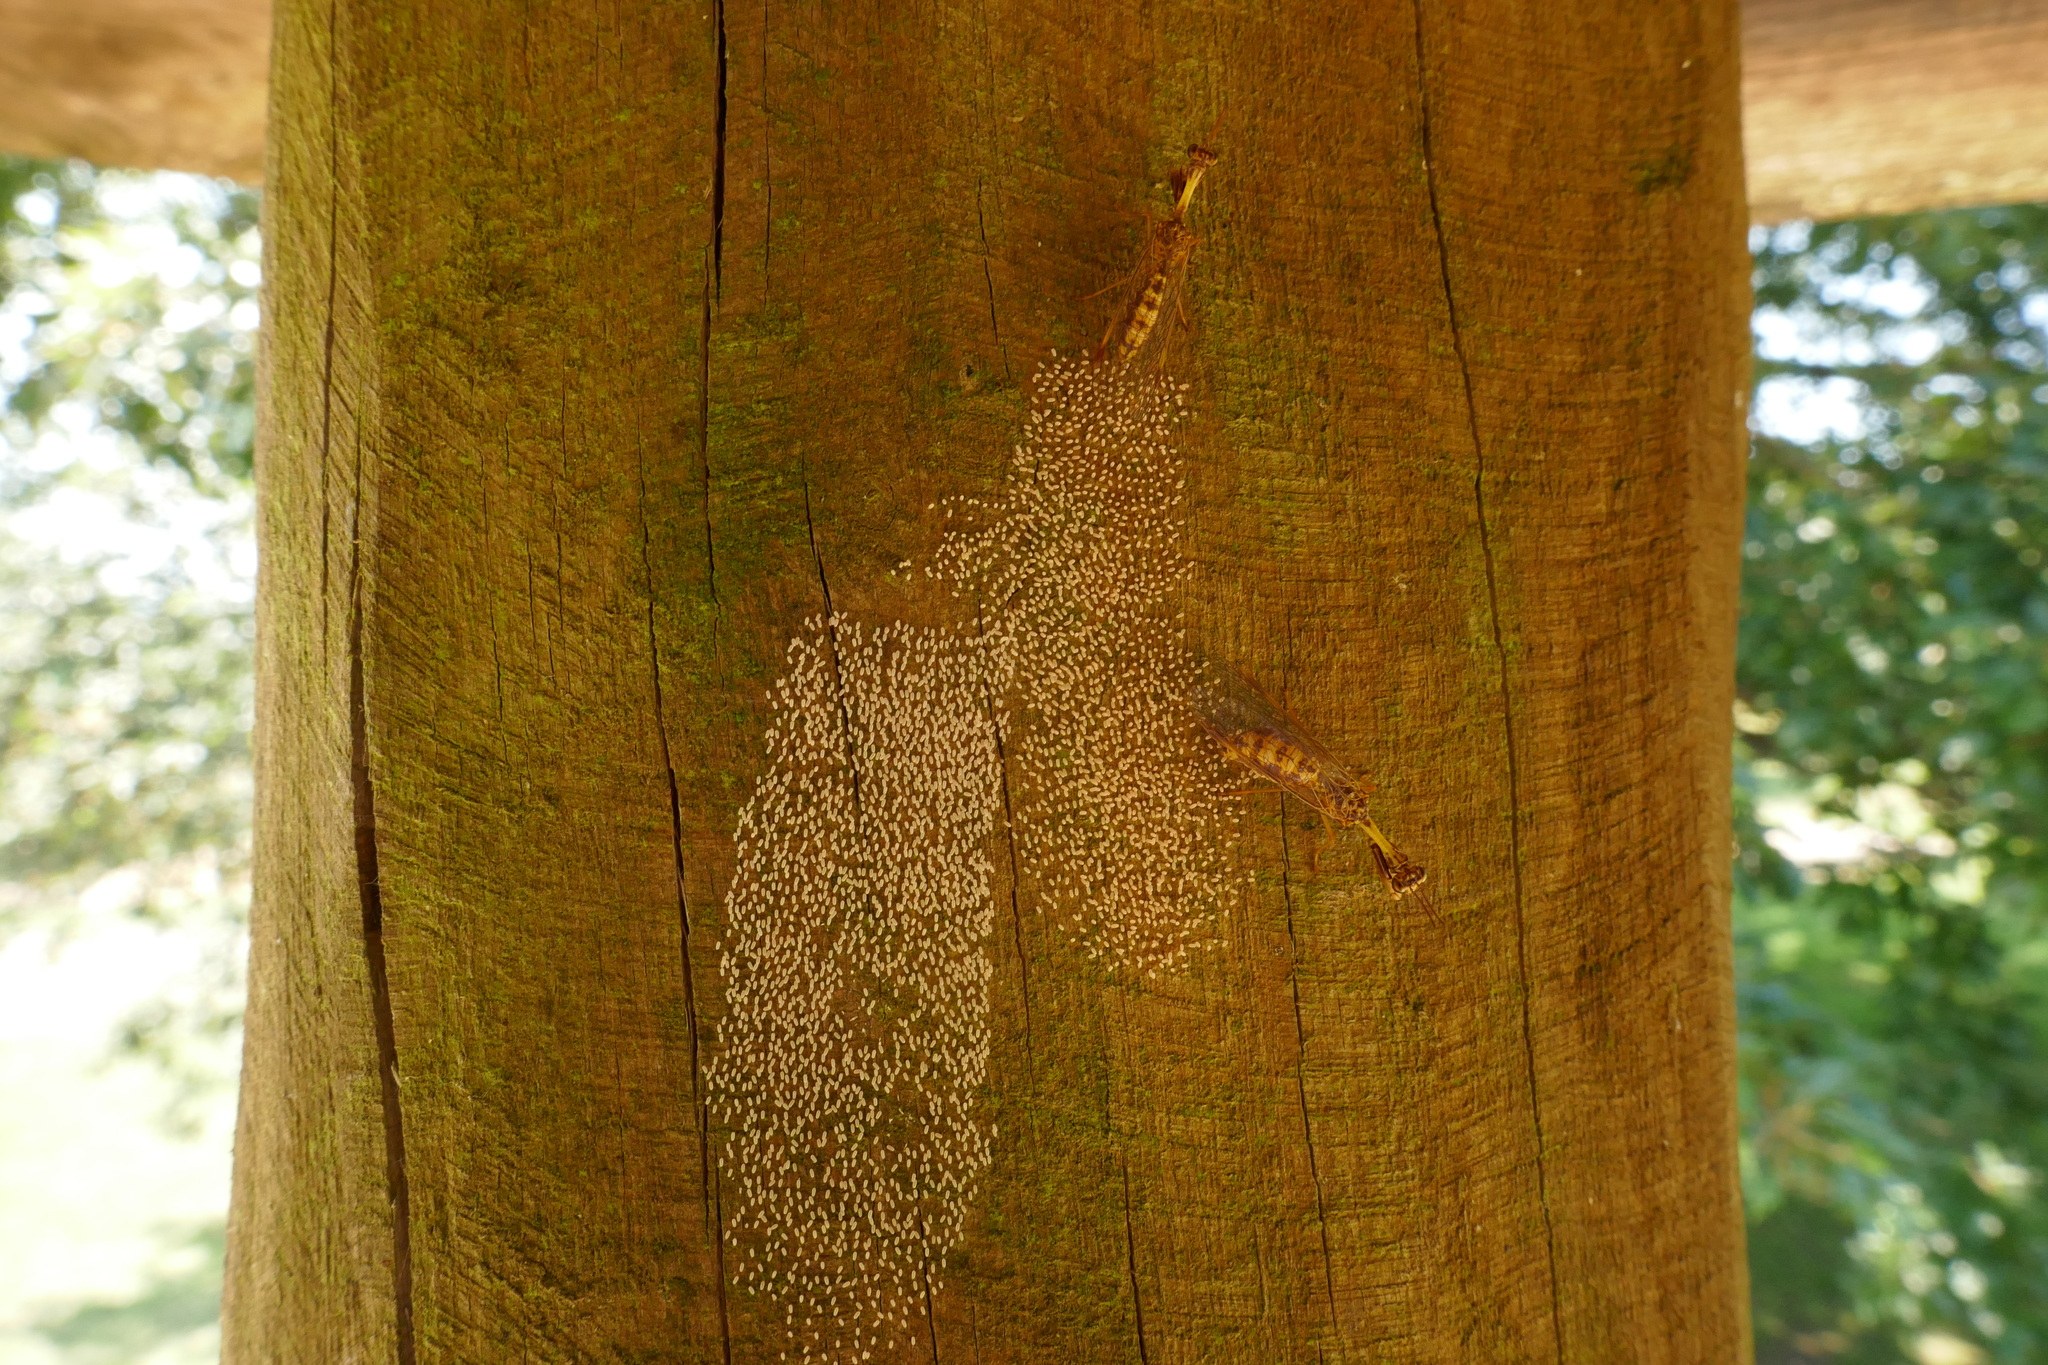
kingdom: Animalia
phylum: Arthropoda
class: Insecta
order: Neuroptera
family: Mantispidae
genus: Mantispa
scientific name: Mantispa styriaca
